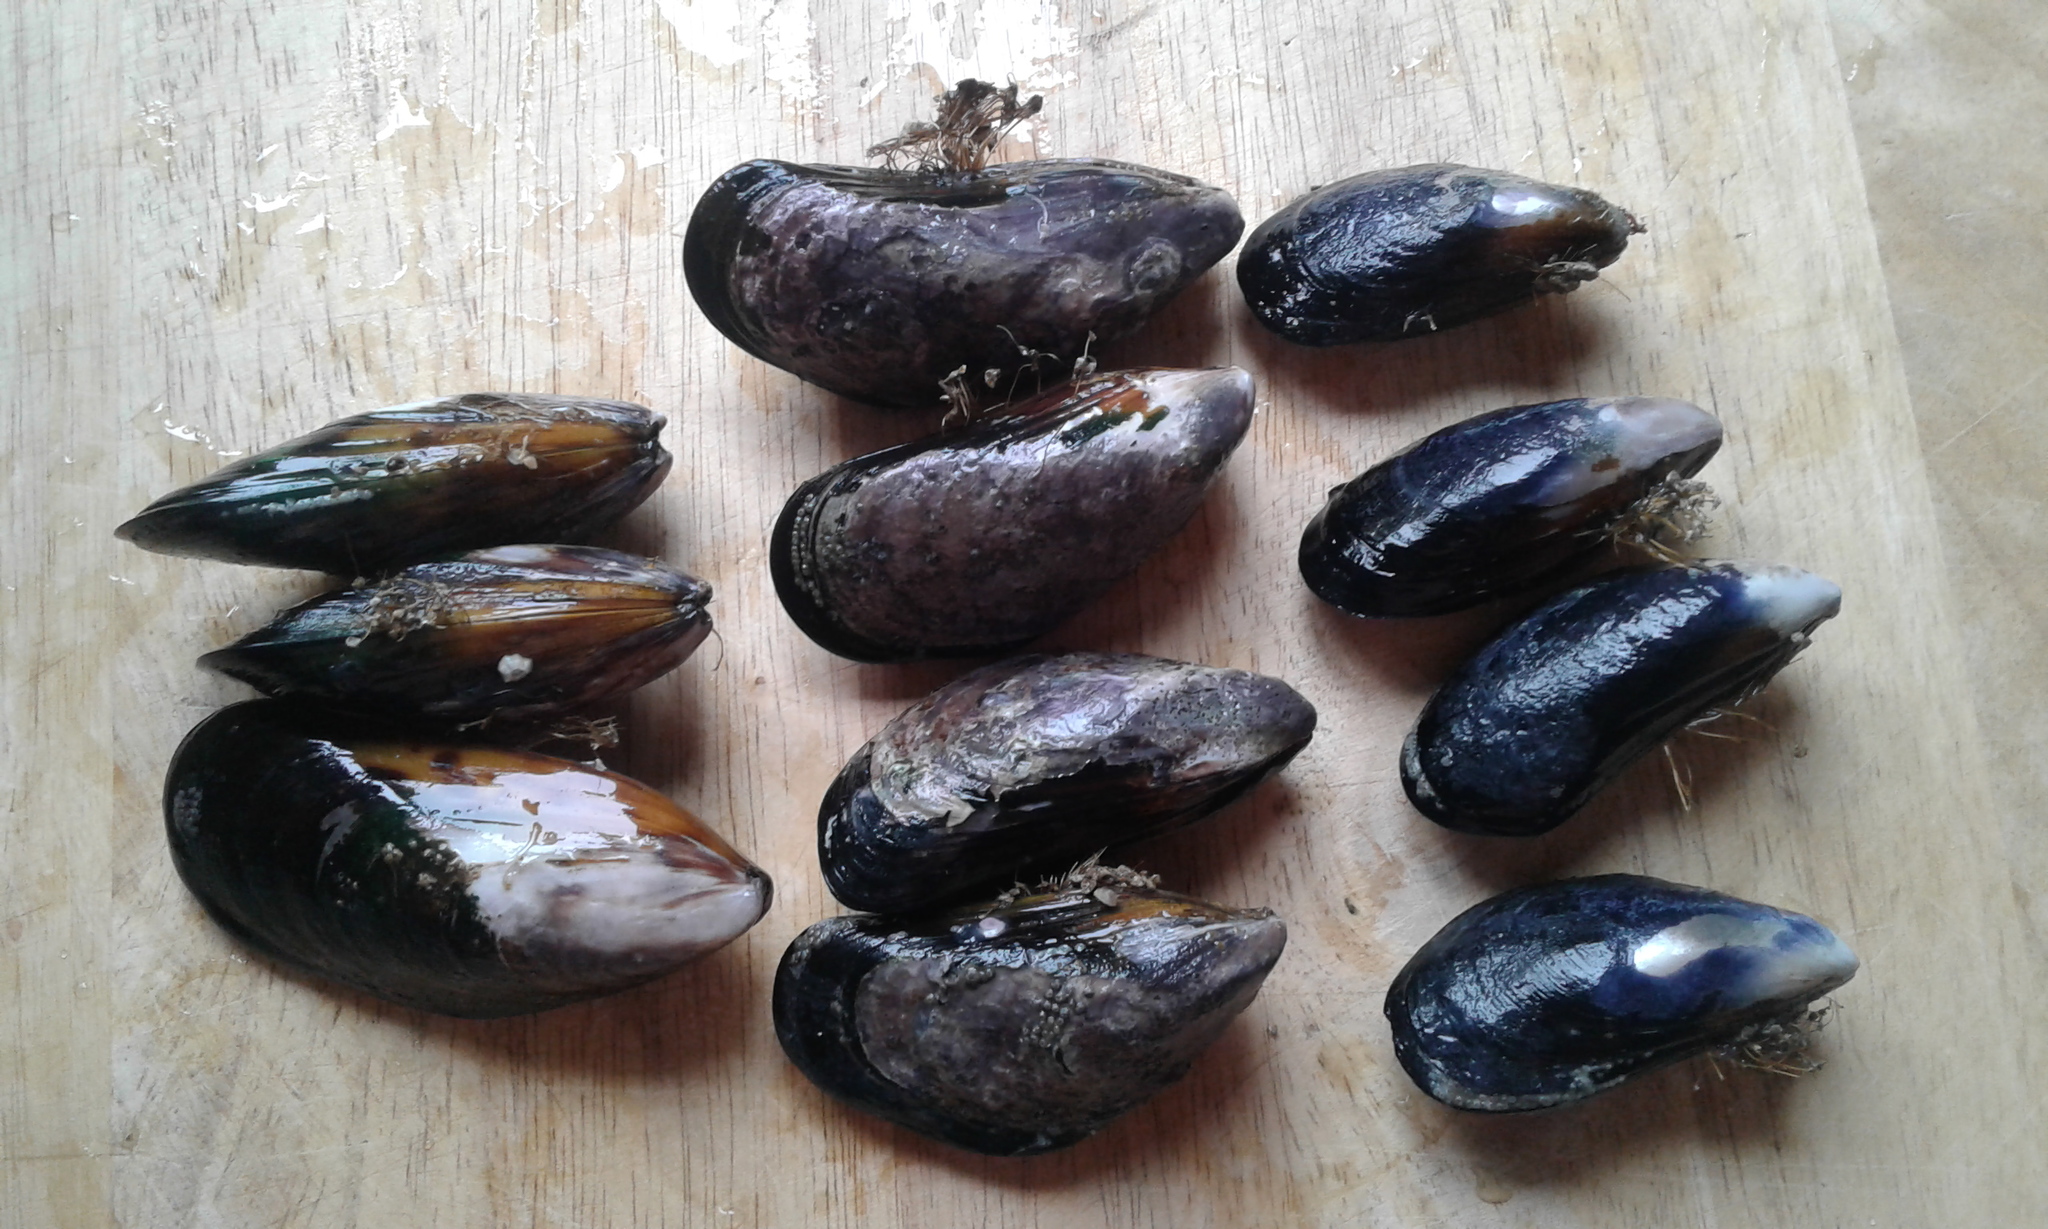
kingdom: Animalia
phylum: Mollusca
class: Bivalvia
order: Mytilida
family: Mytilidae
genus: Perna
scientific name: Perna canaliculus
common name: New zealand greenshelltm
